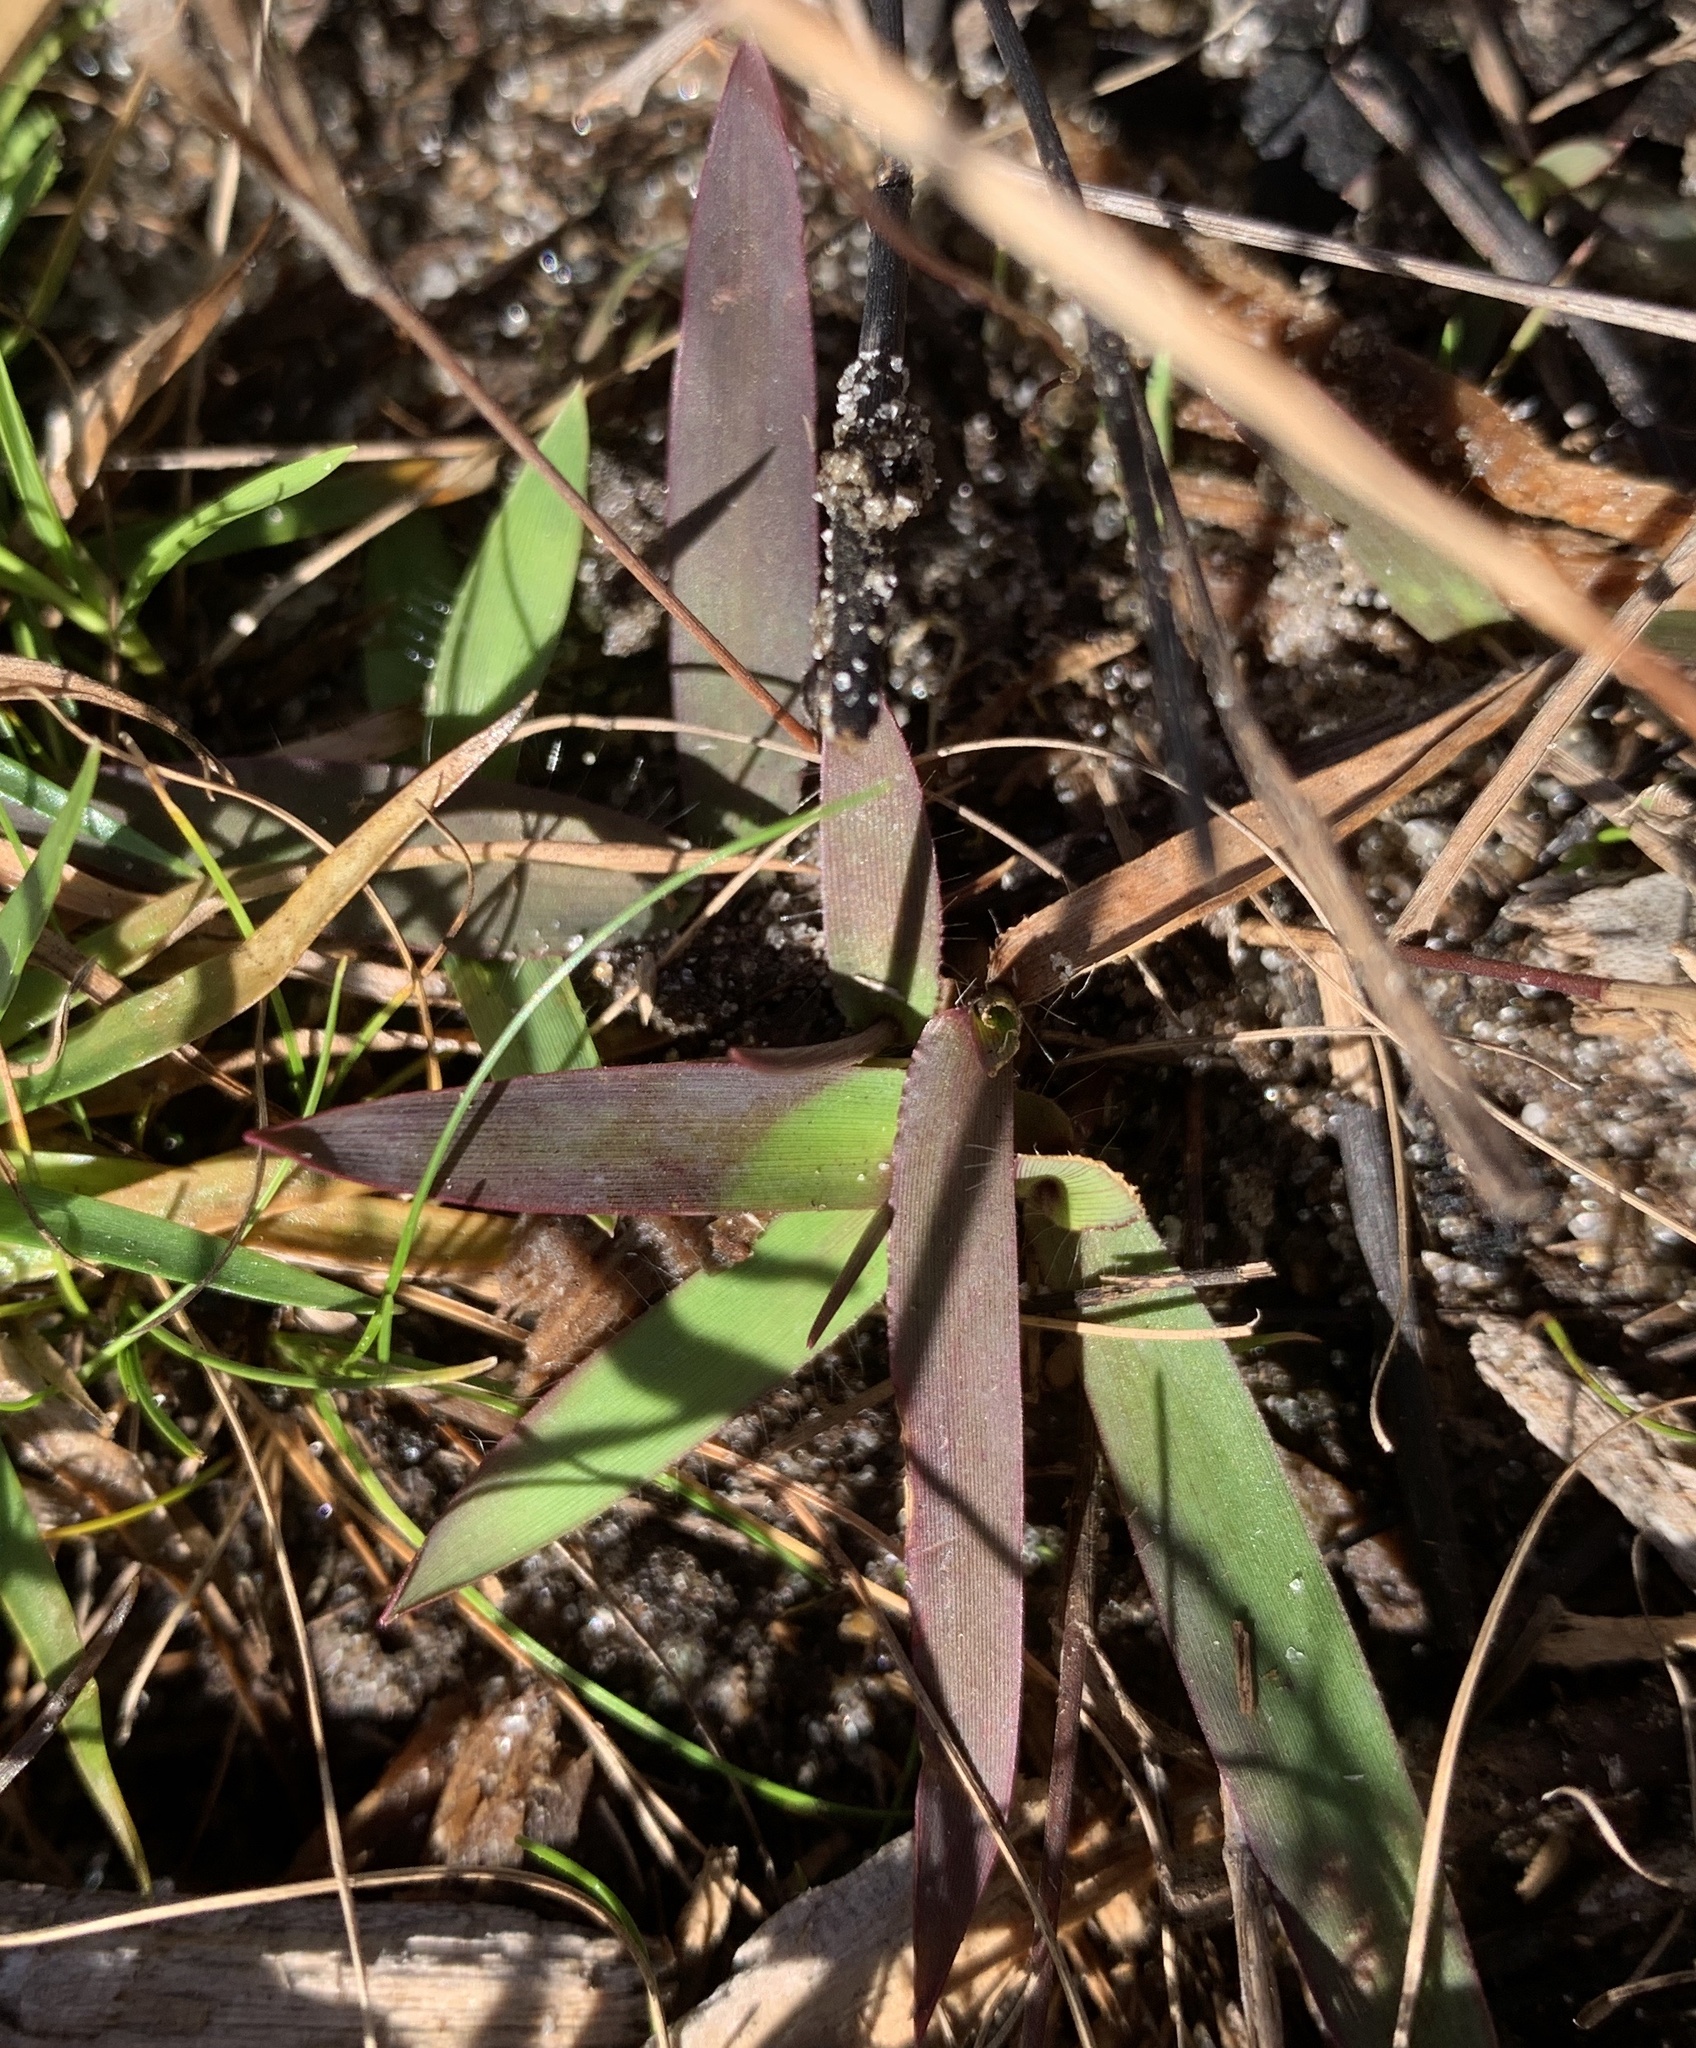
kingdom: Plantae
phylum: Tracheophyta
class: Magnoliopsida
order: Lamiales
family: Lentibulariaceae
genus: Utricularia
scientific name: Utricularia subulata
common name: Tiny bladderwort
